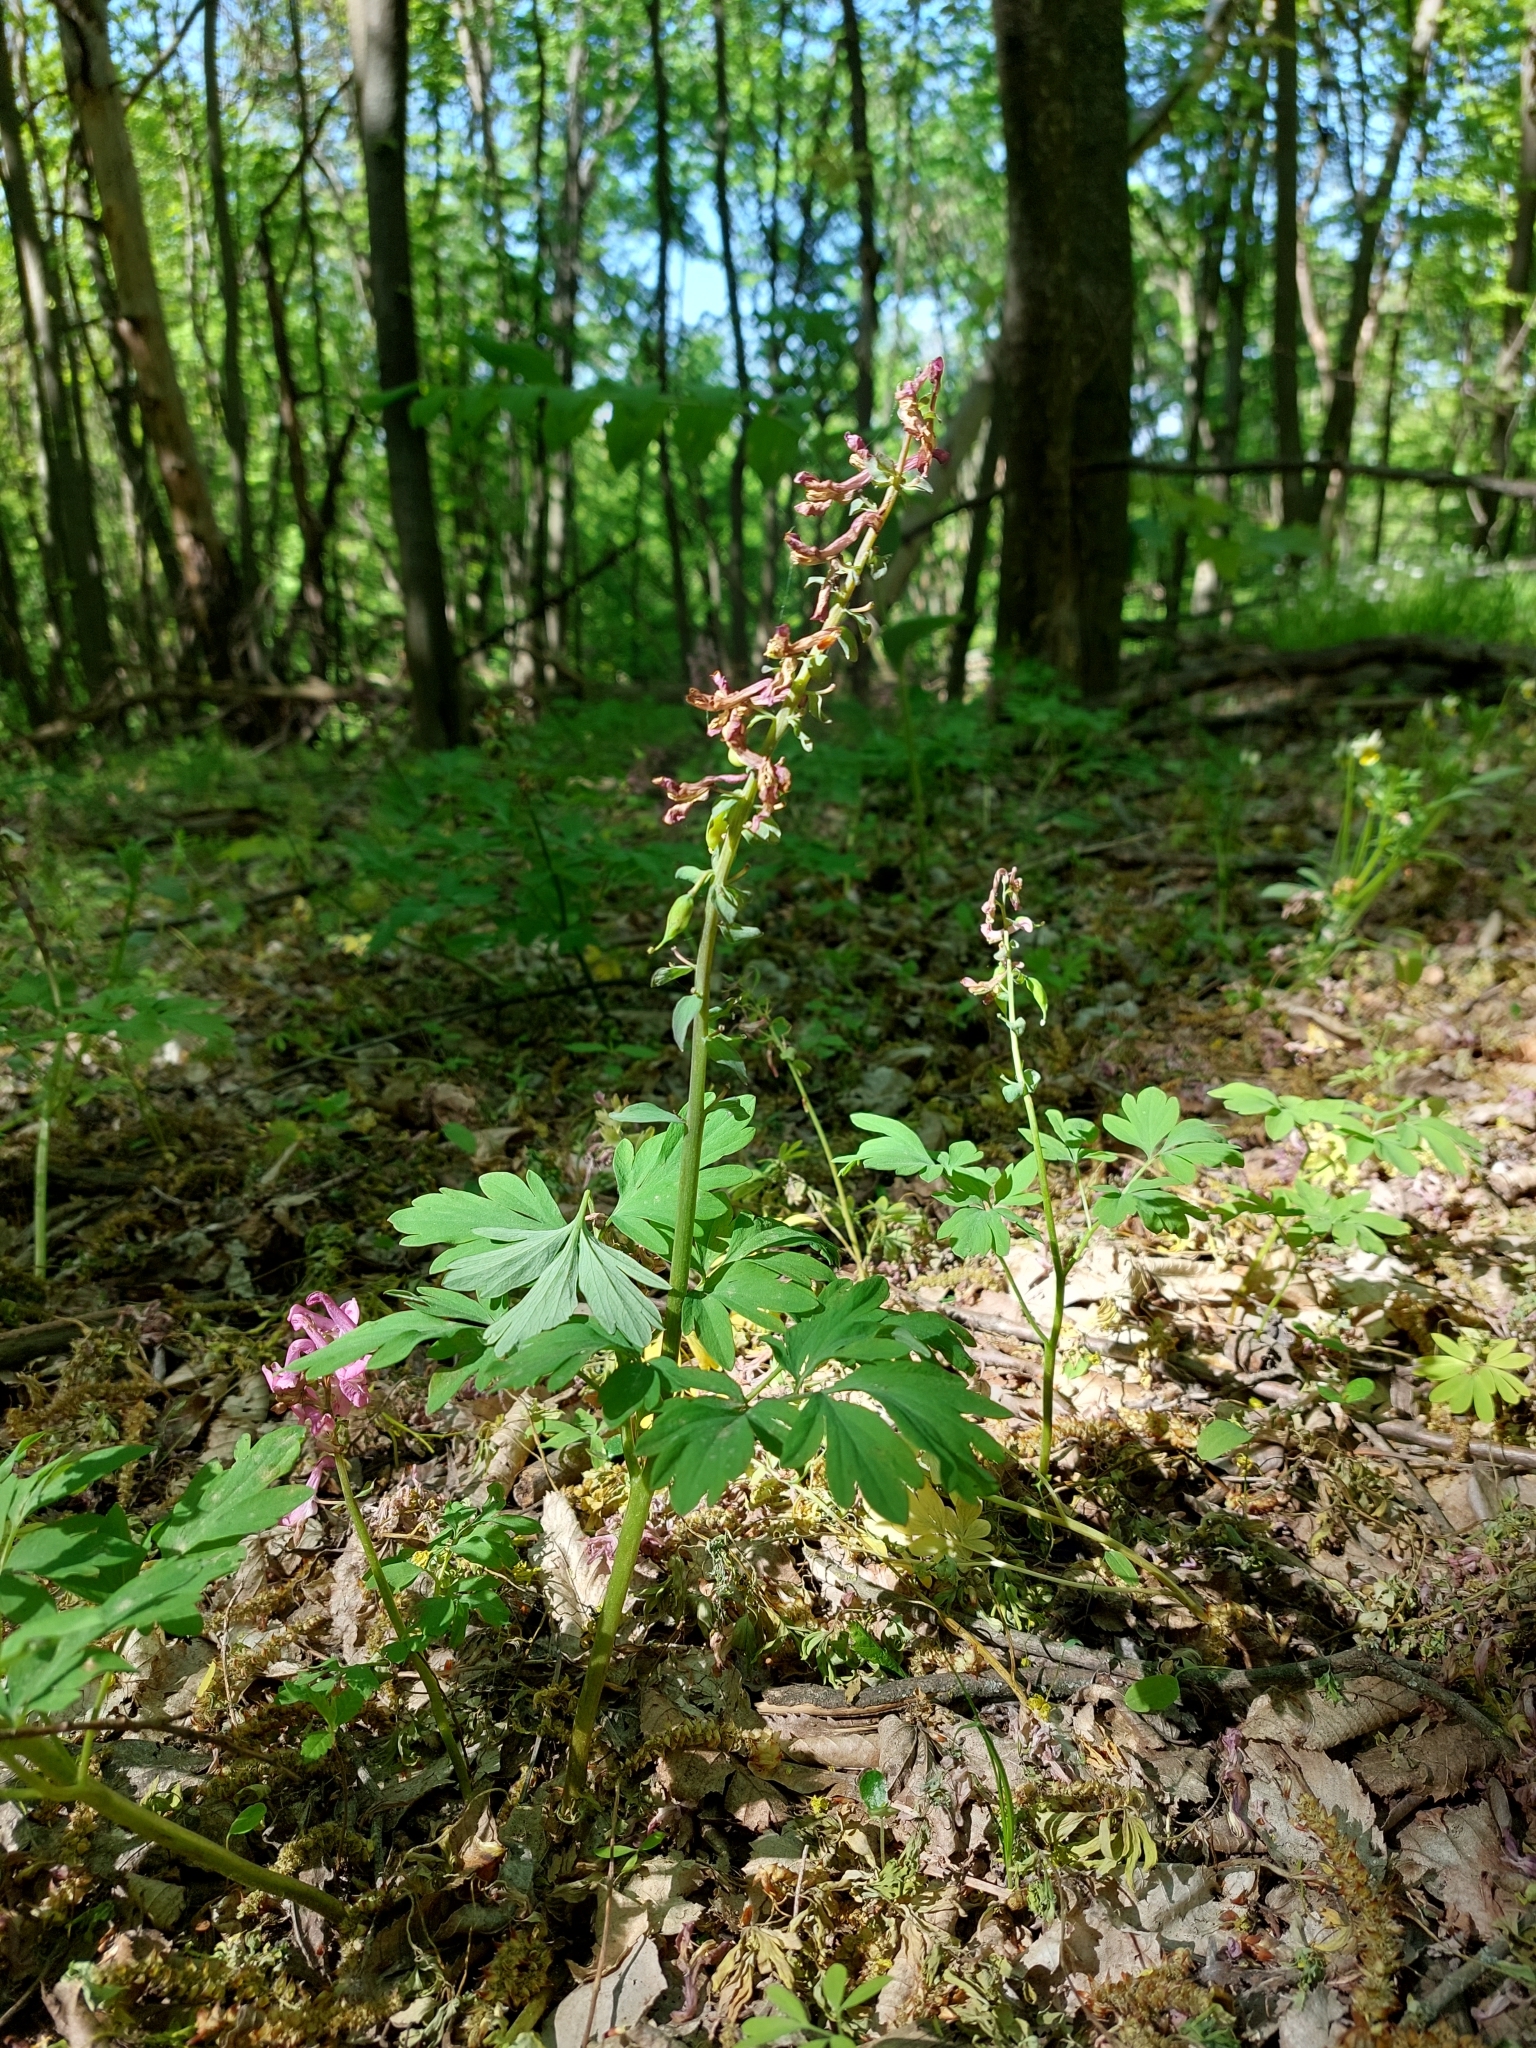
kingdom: Plantae
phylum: Tracheophyta
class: Magnoliopsida
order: Ranunculales
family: Papaveraceae
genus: Corydalis
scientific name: Corydalis cava
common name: Hollowroot
